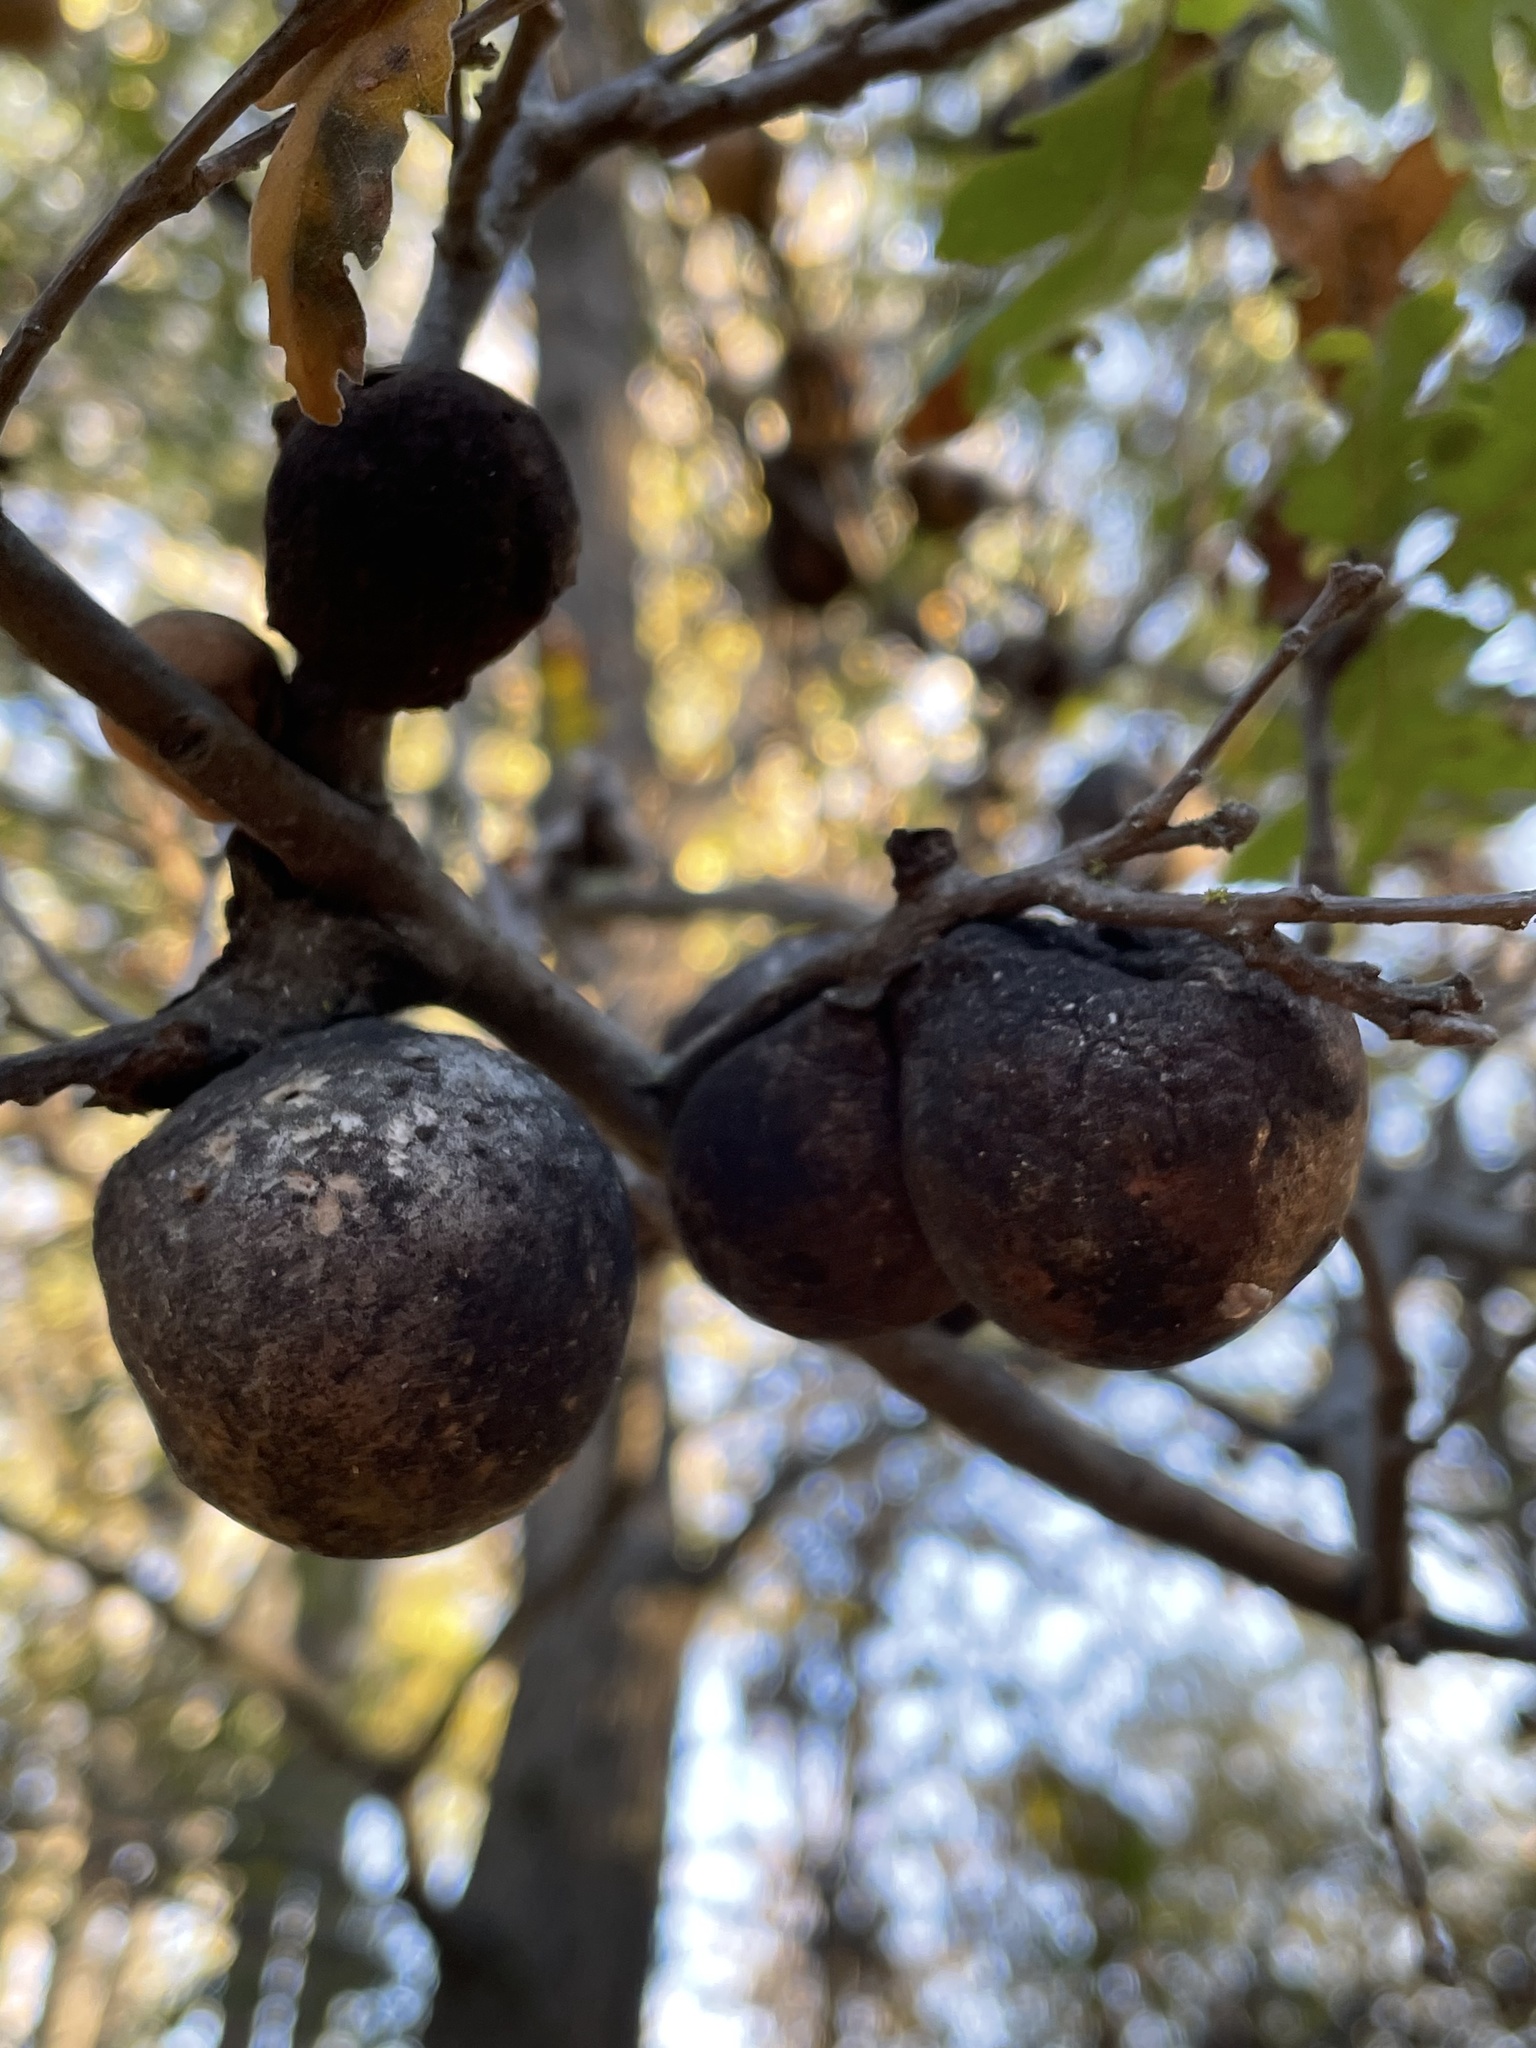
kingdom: Animalia
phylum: Arthropoda
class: Insecta
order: Hymenoptera
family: Cynipidae
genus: Andricus
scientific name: Andricus quercuscalifornicus
